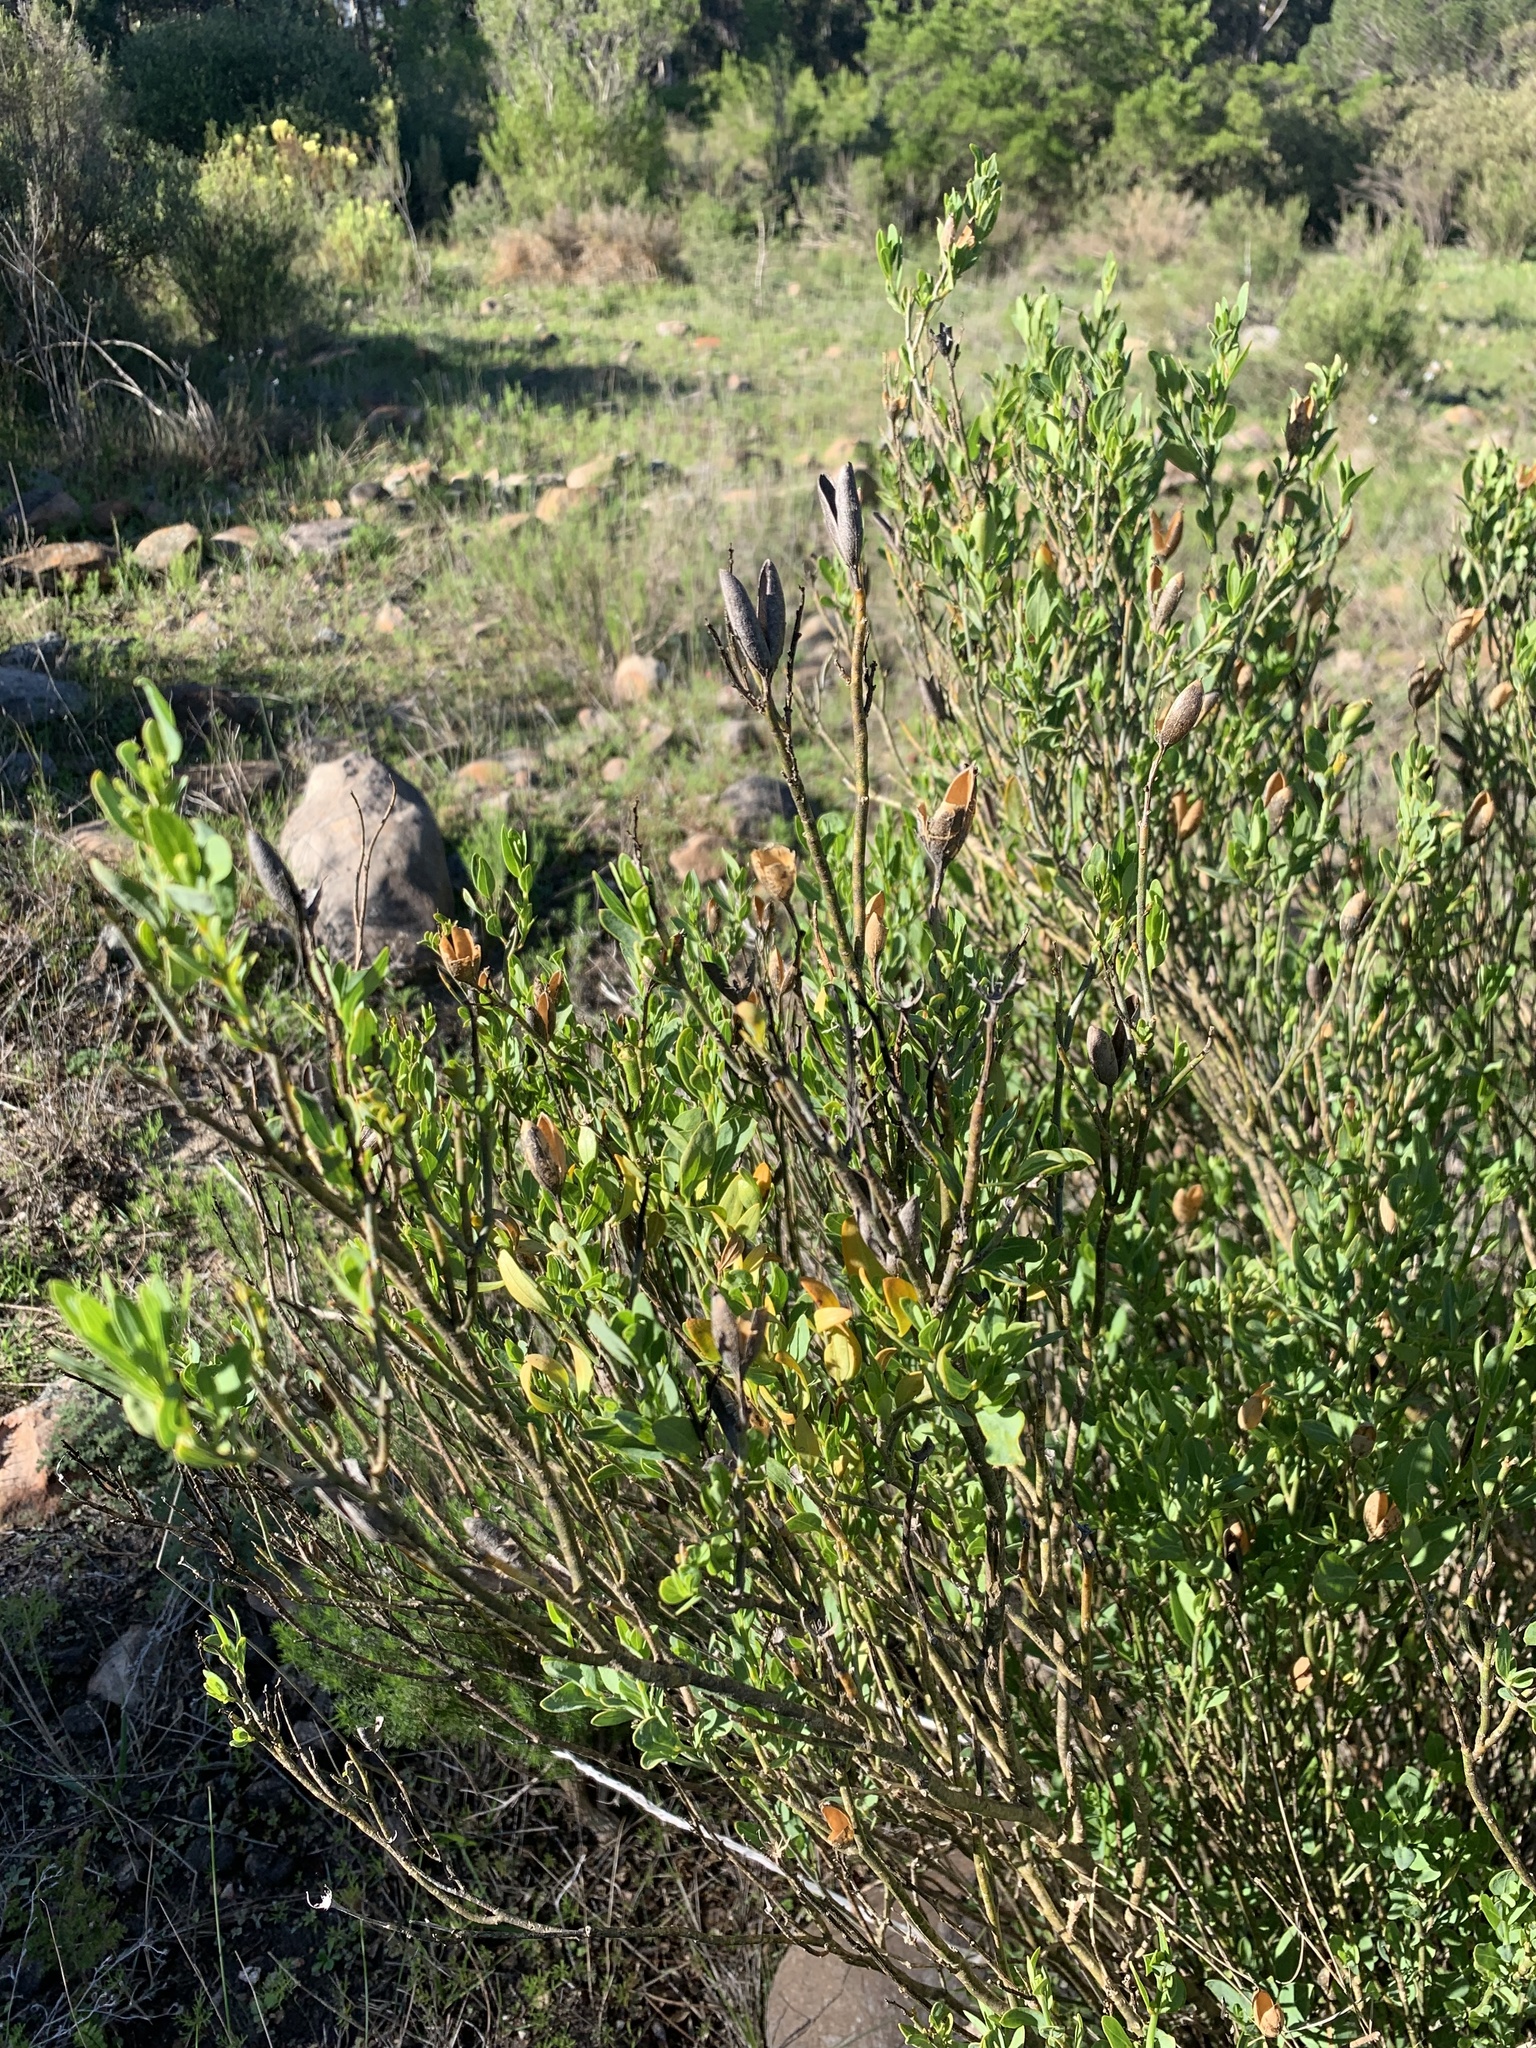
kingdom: Plantae
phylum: Tracheophyta
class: Magnoliopsida
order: Solanales
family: Montiniaceae
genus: Montinia
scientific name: Montinia caryophyllacea
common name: Wild clove-bush
